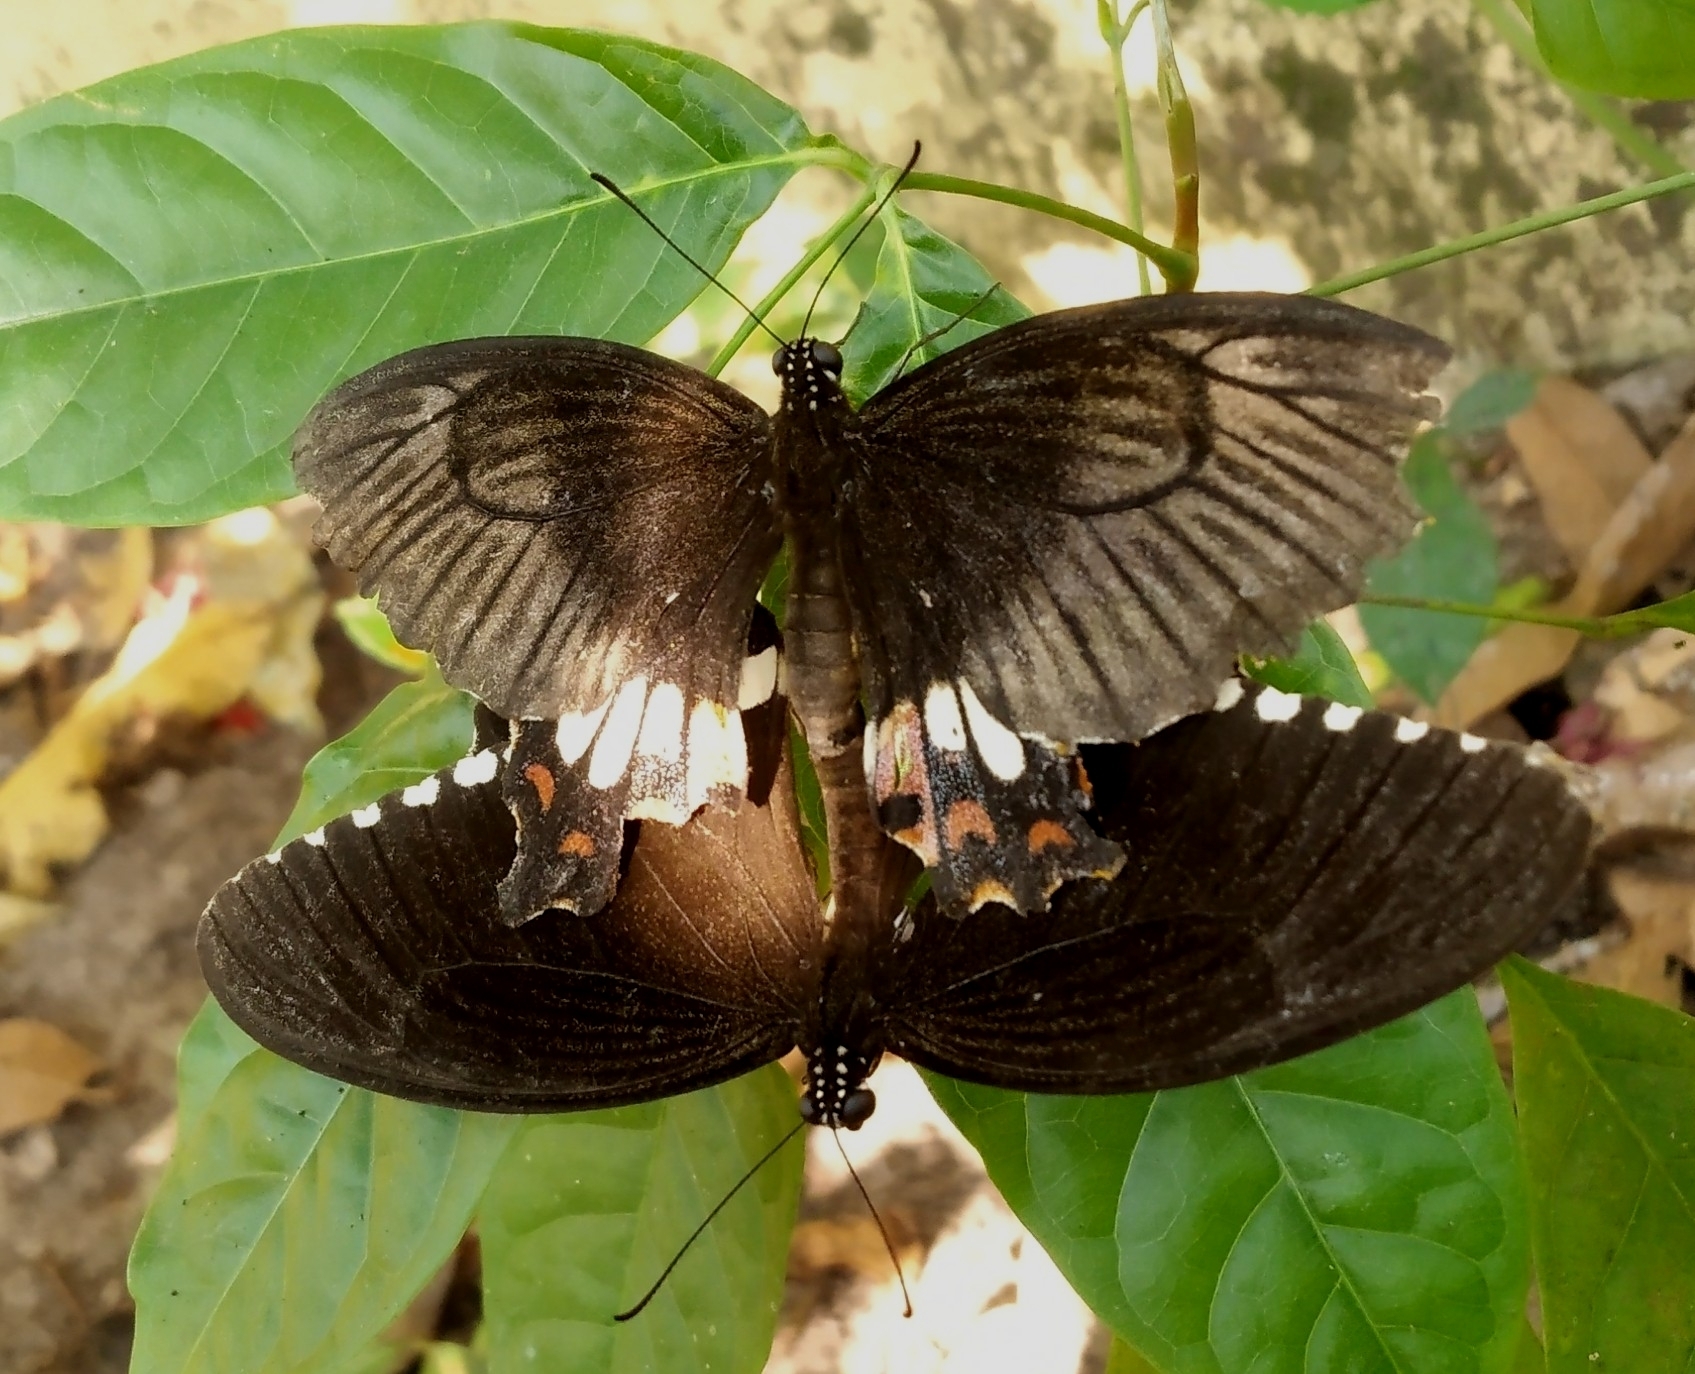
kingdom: Animalia
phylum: Arthropoda
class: Insecta
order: Lepidoptera
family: Papilionidae
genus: Papilio
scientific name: Papilio polytes
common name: Common mormon
